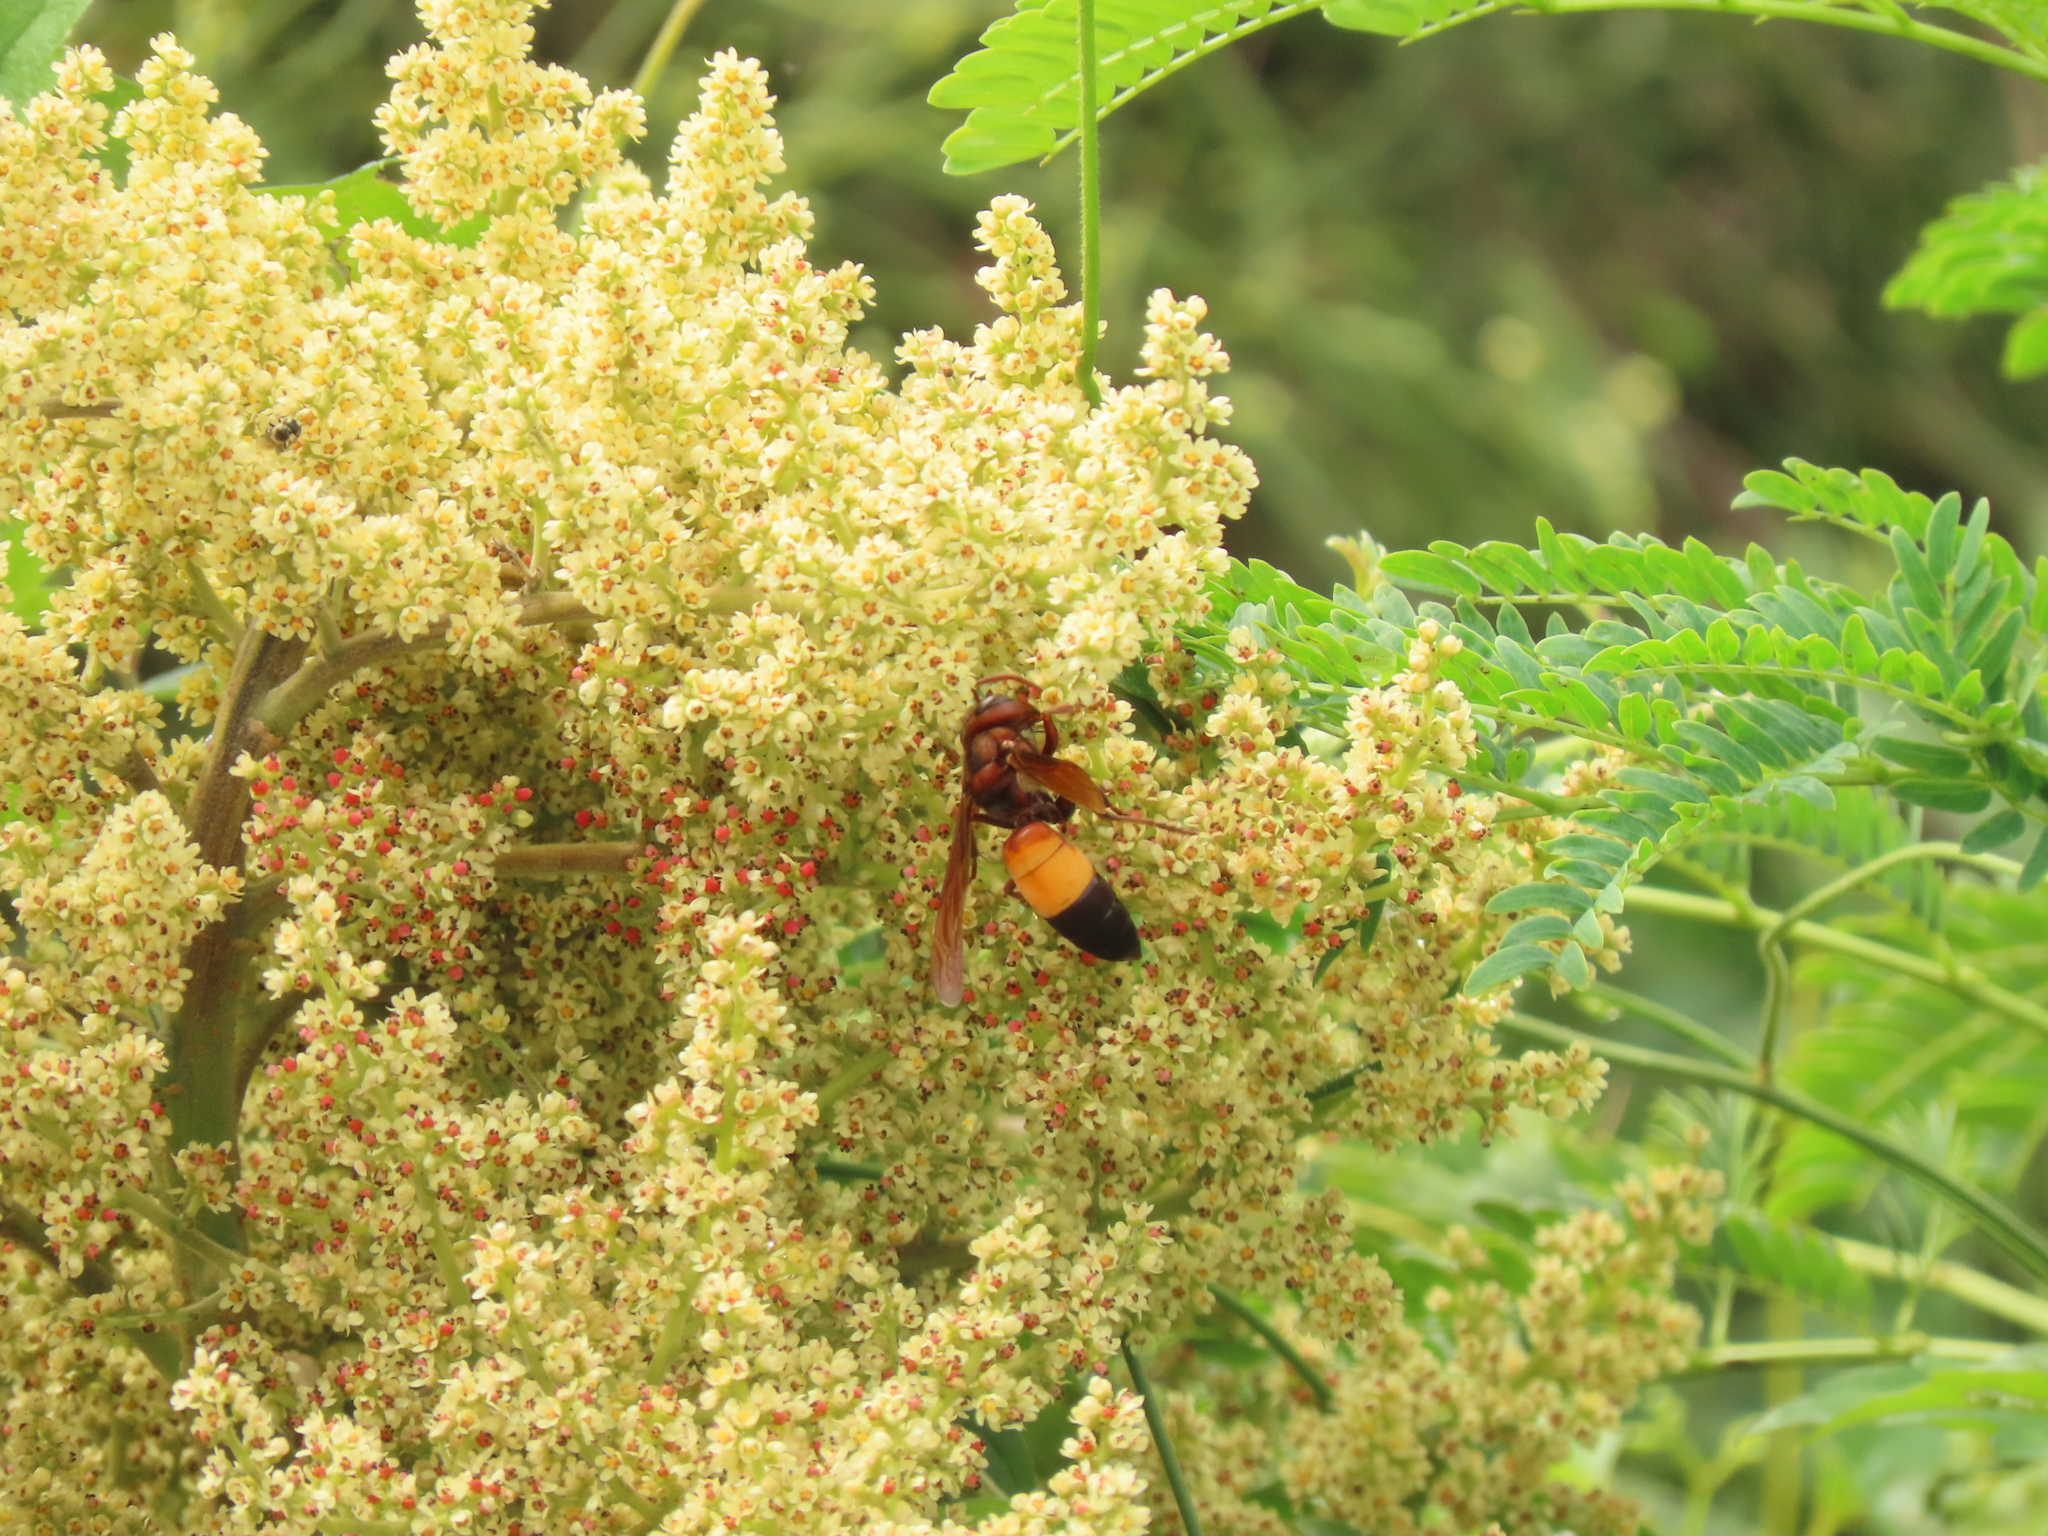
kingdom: Animalia
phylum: Arthropoda
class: Insecta
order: Hymenoptera
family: Vespidae
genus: Vespa
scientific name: Vespa affinis
